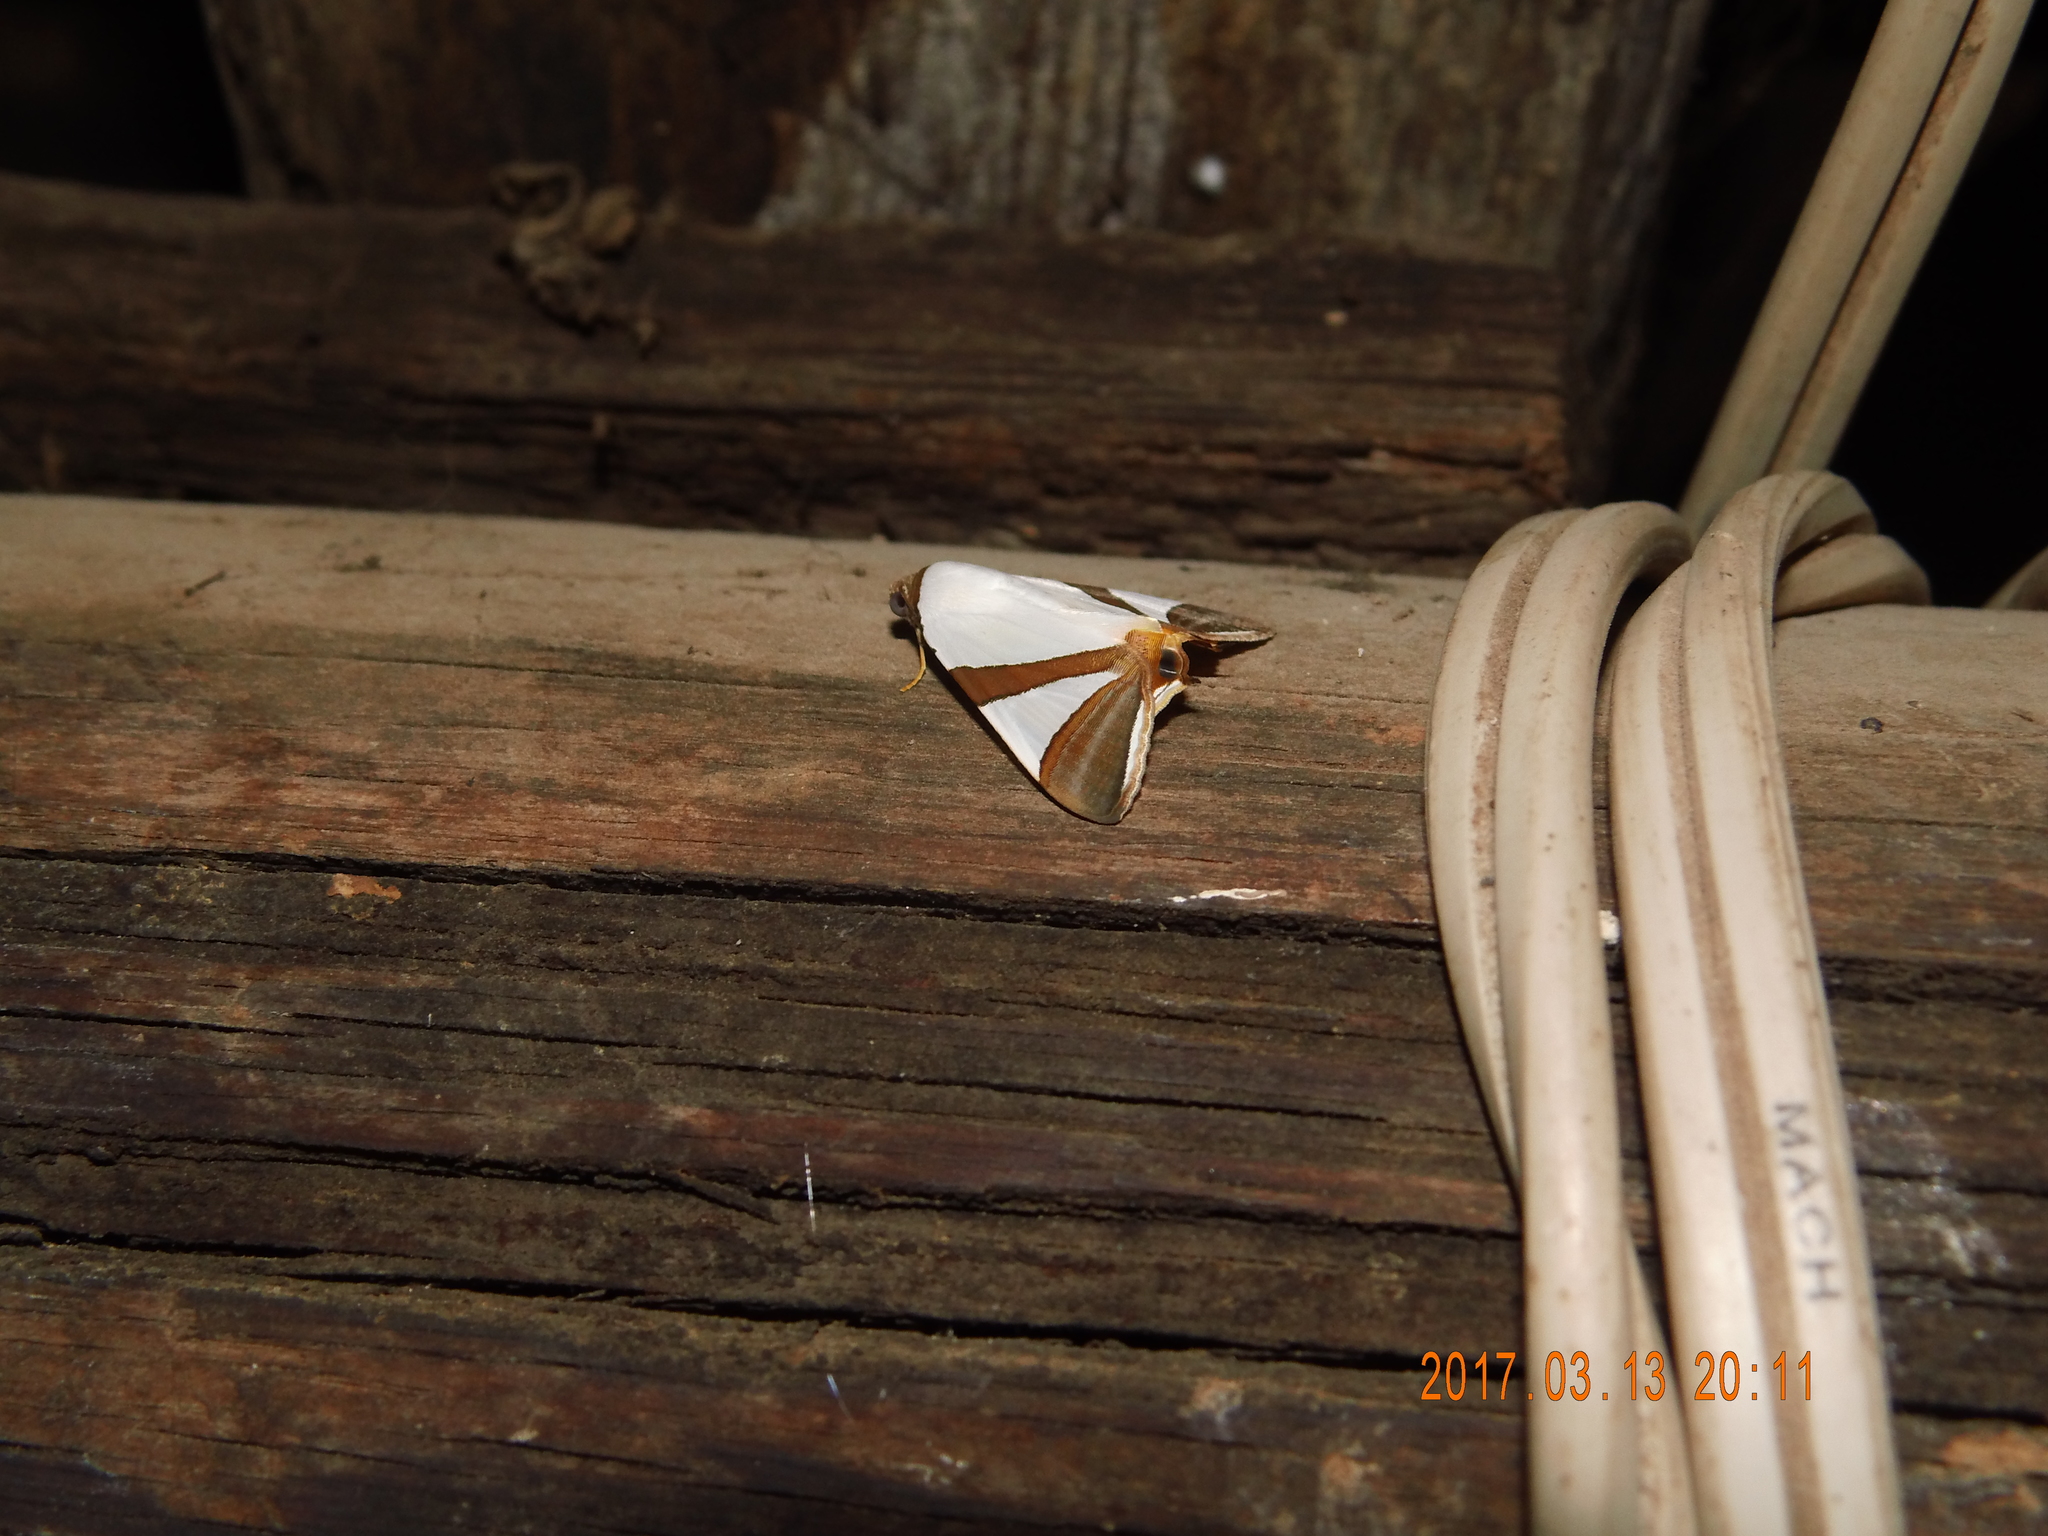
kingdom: Animalia
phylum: Arthropoda
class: Insecta
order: Lepidoptera
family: Erebidae
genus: Eulepidotis
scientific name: Eulepidotis rectimargo
